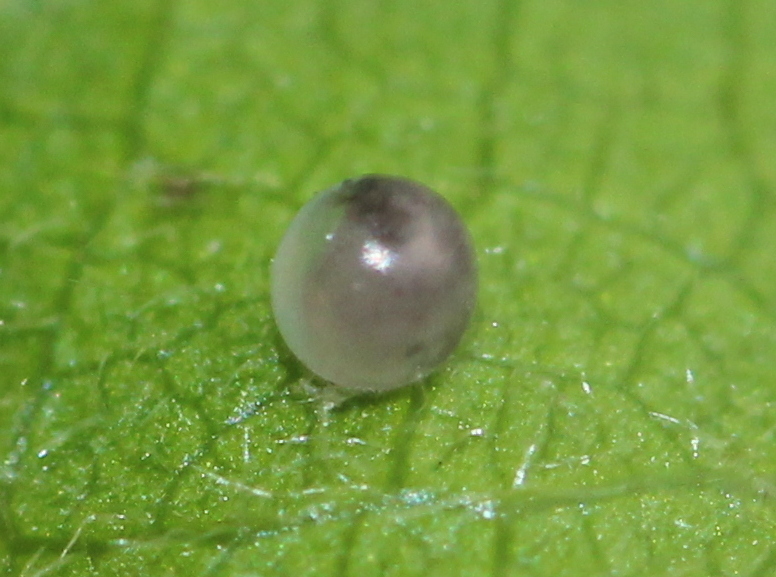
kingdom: Animalia
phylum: Arthropoda
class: Insecta
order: Lepidoptera
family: Papilionidae
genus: Graphium
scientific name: Graphium nomius
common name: Spot swordtail
